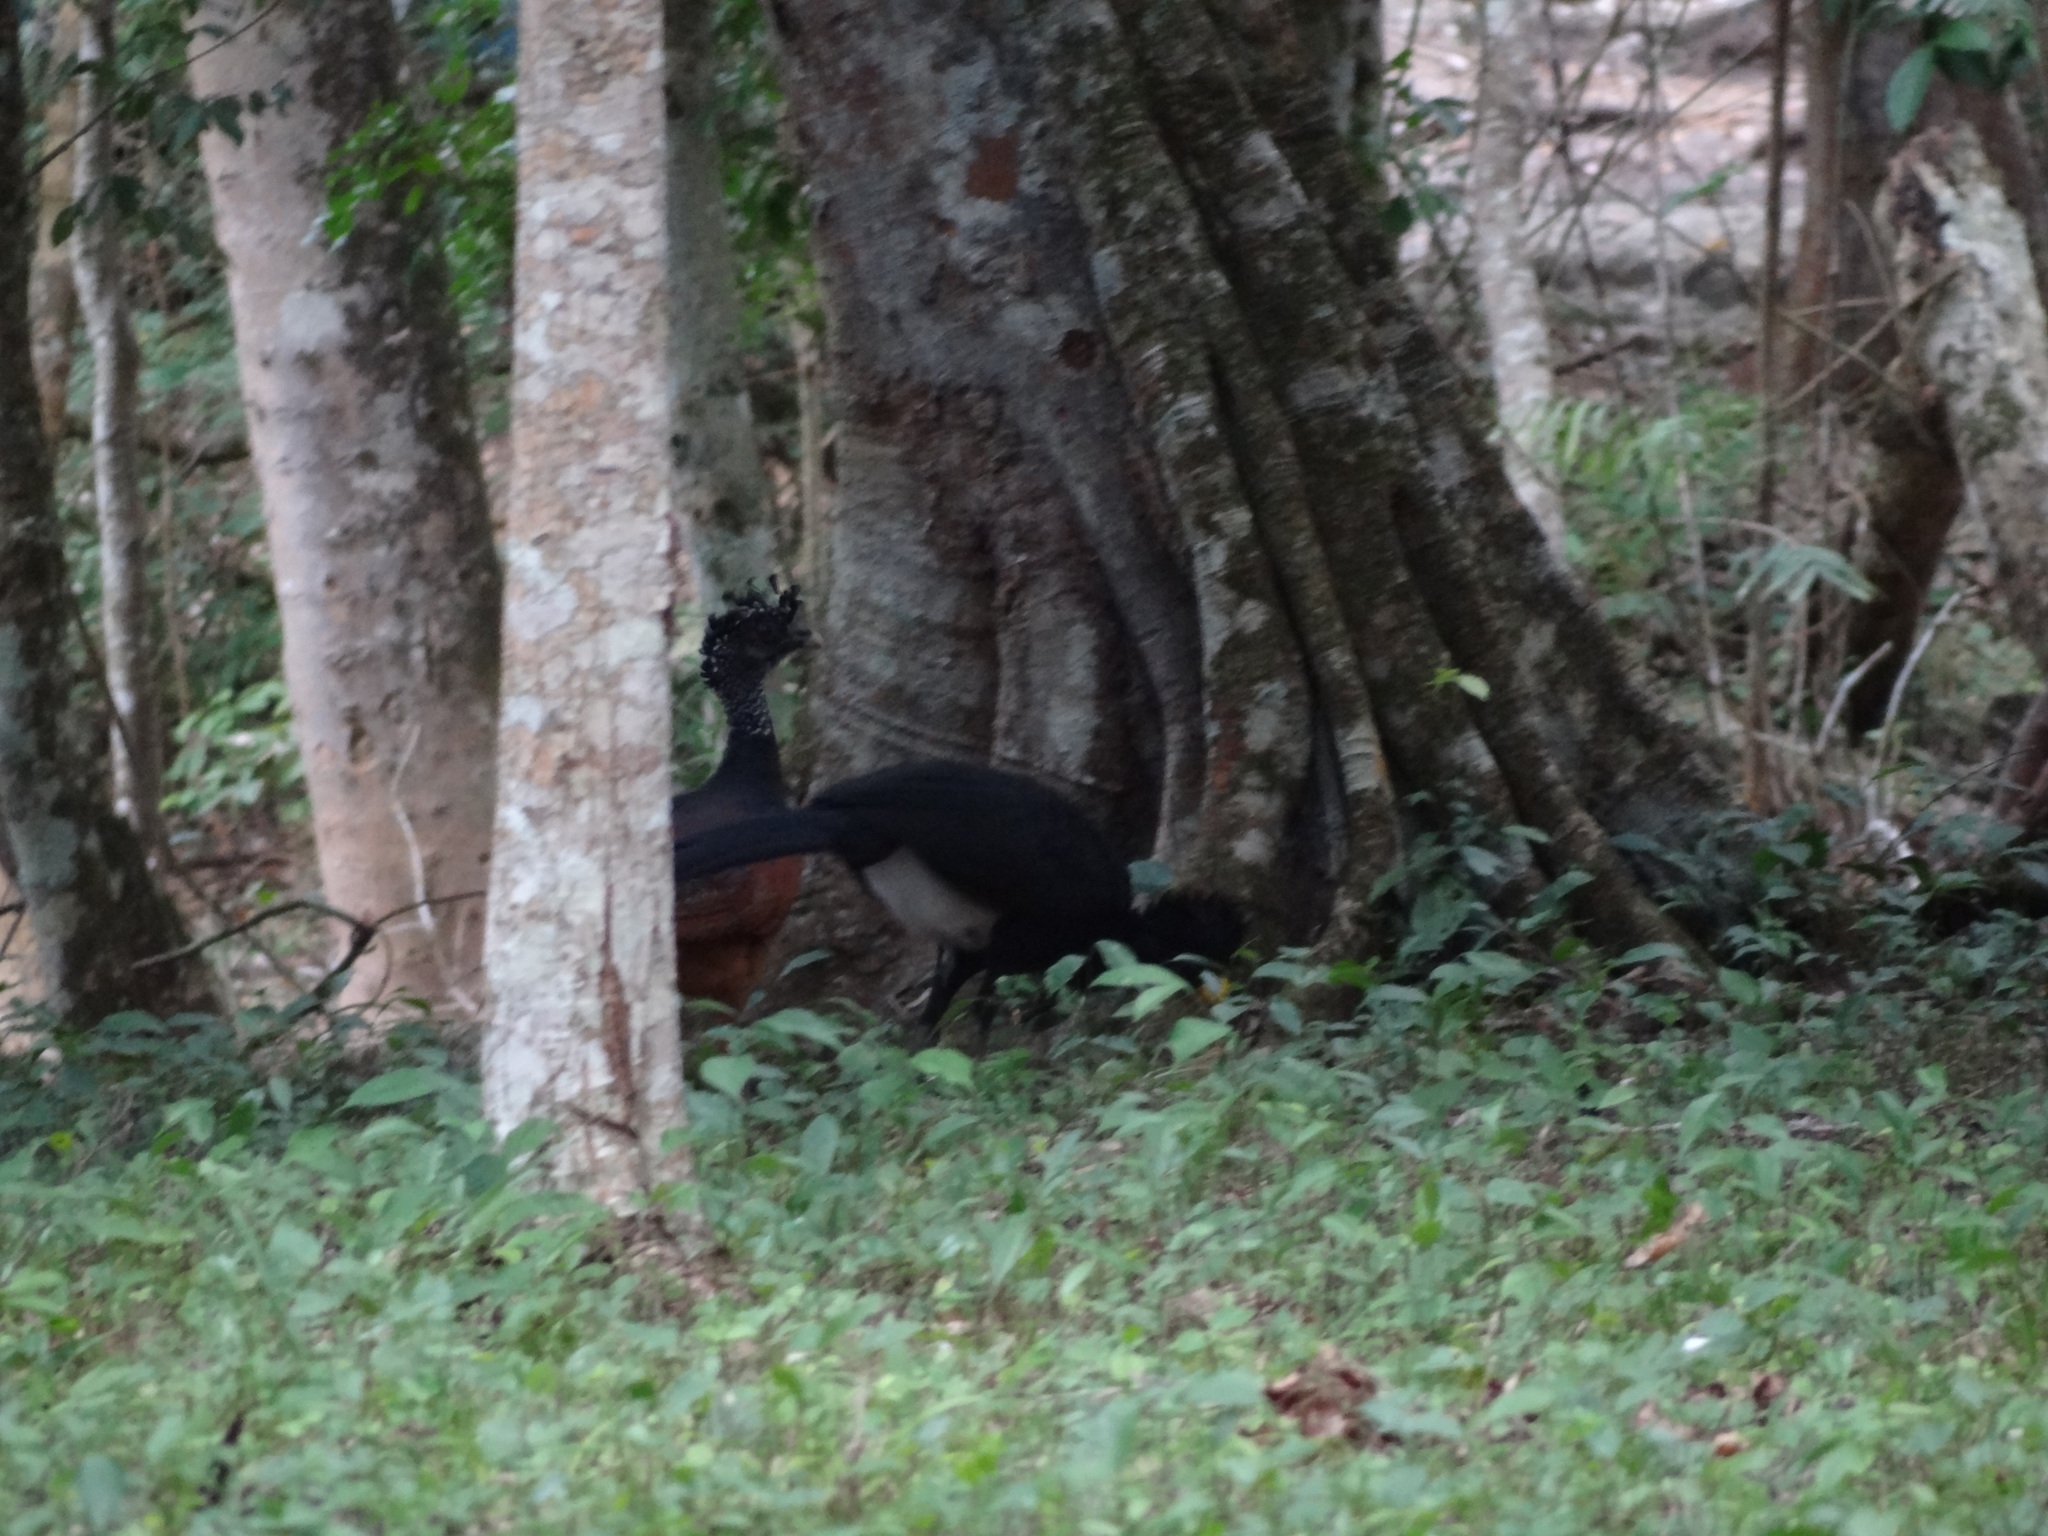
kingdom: Animalia
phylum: Chordata
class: Aves
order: Galliformes
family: Cracidae
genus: Crax
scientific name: Crax rubra
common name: Great curassow
